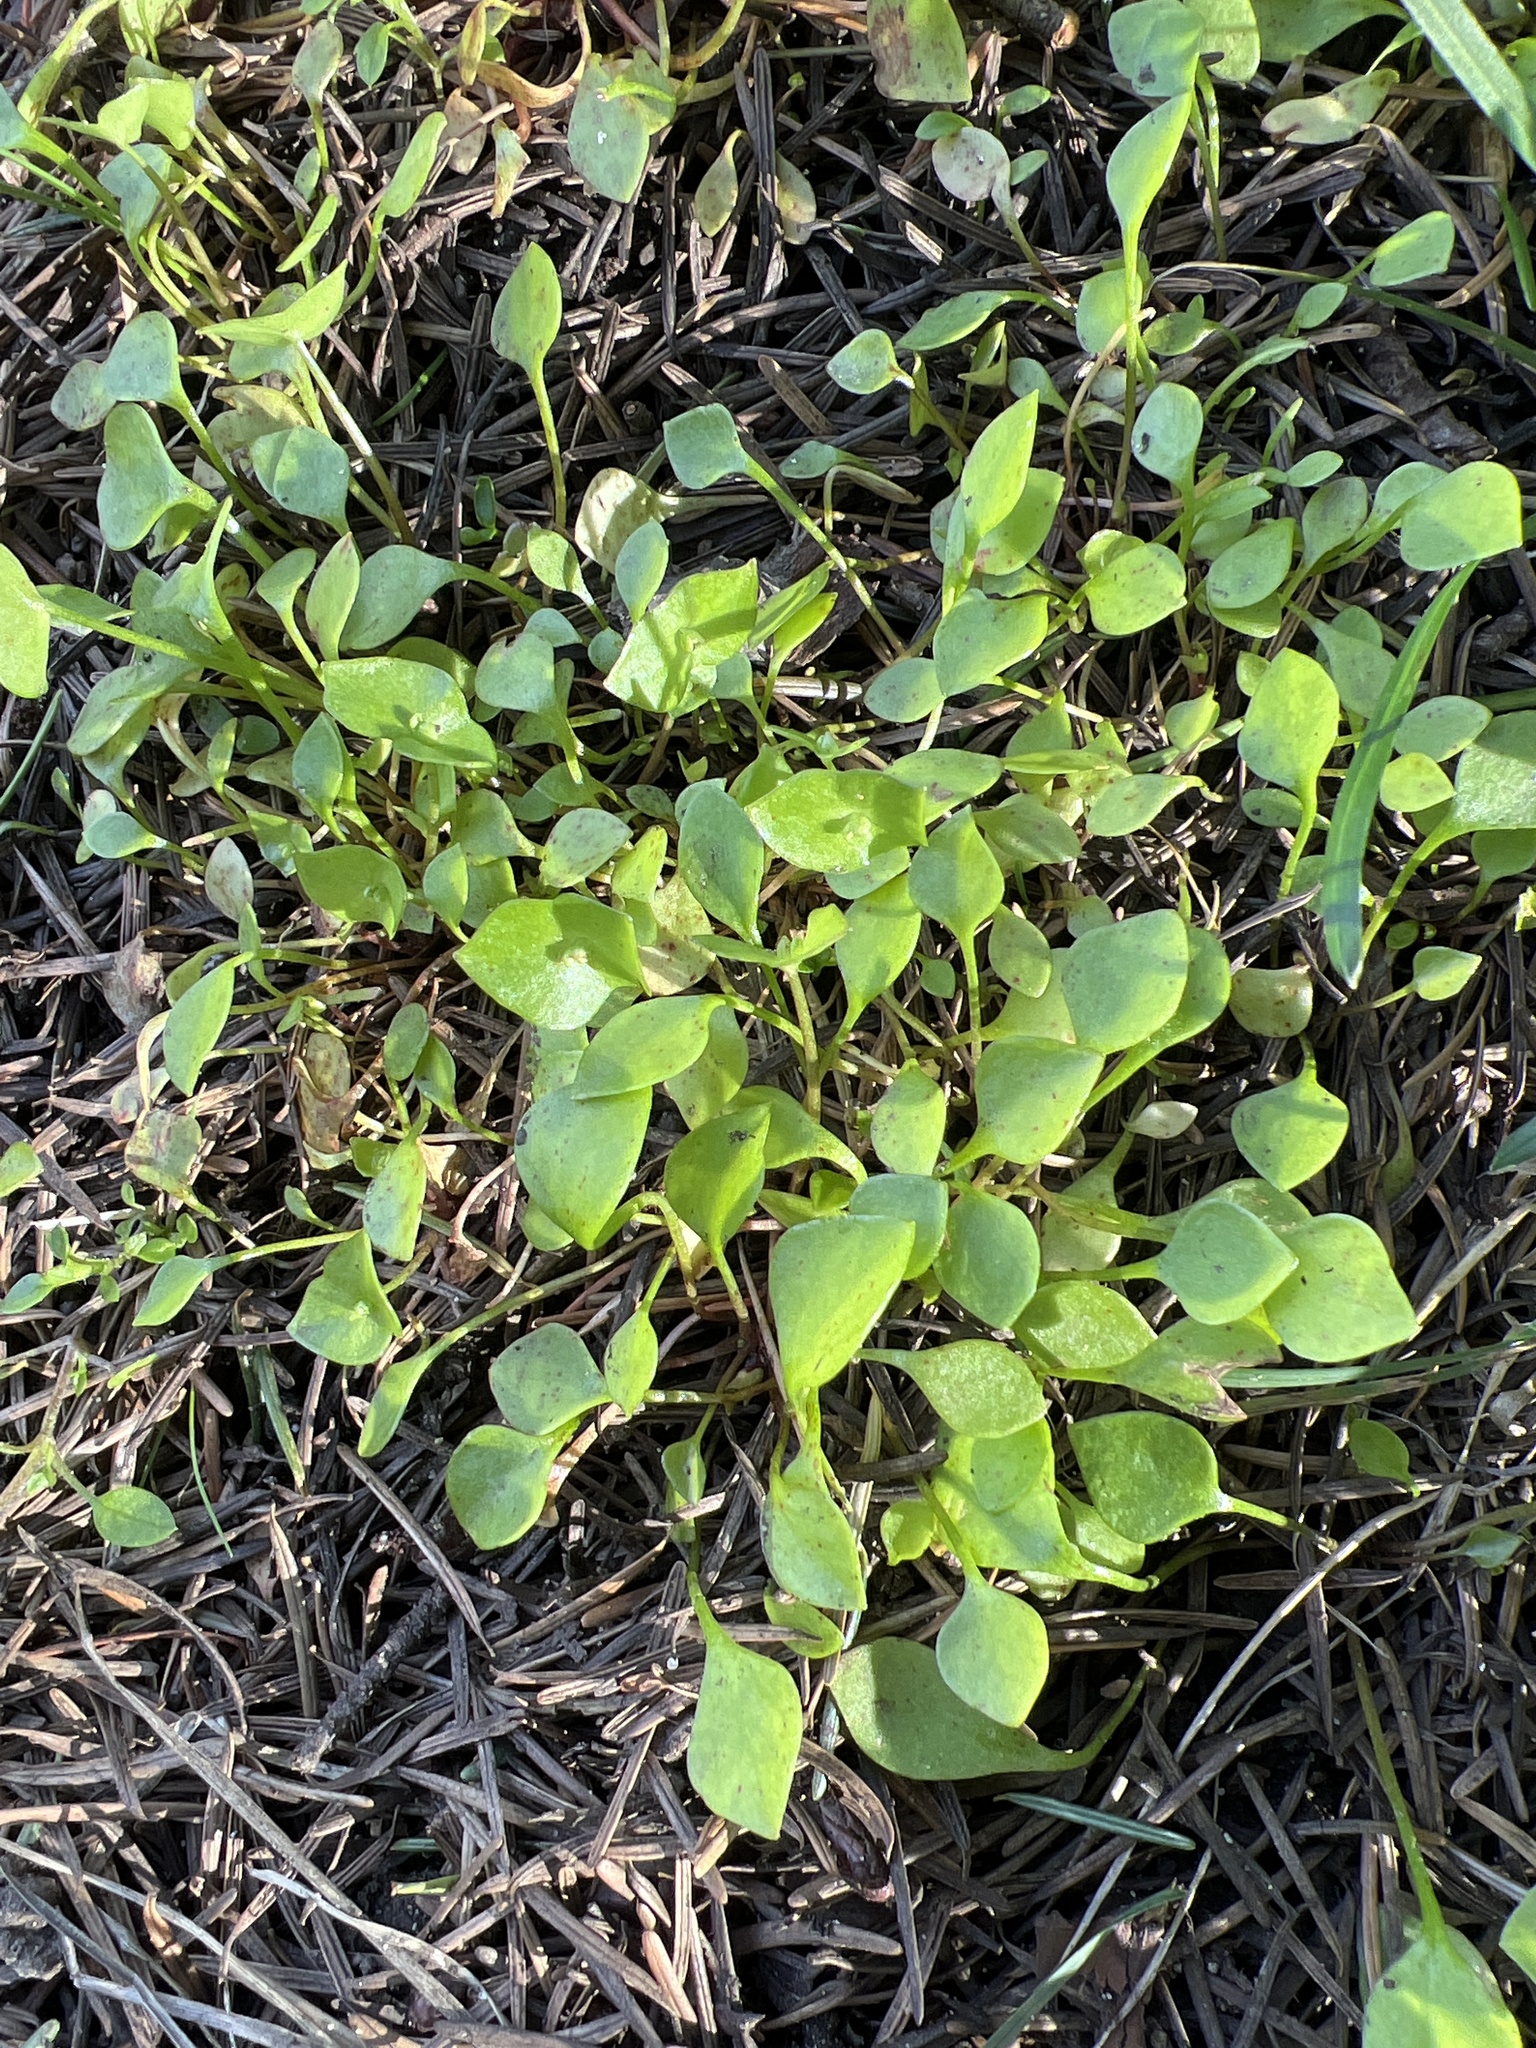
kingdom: Plantae
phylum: Tracheophyta
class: Magnoliopsida
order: Caryophyllales
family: Montiaceae
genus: Claytonia
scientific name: Claytonia perfoliata
